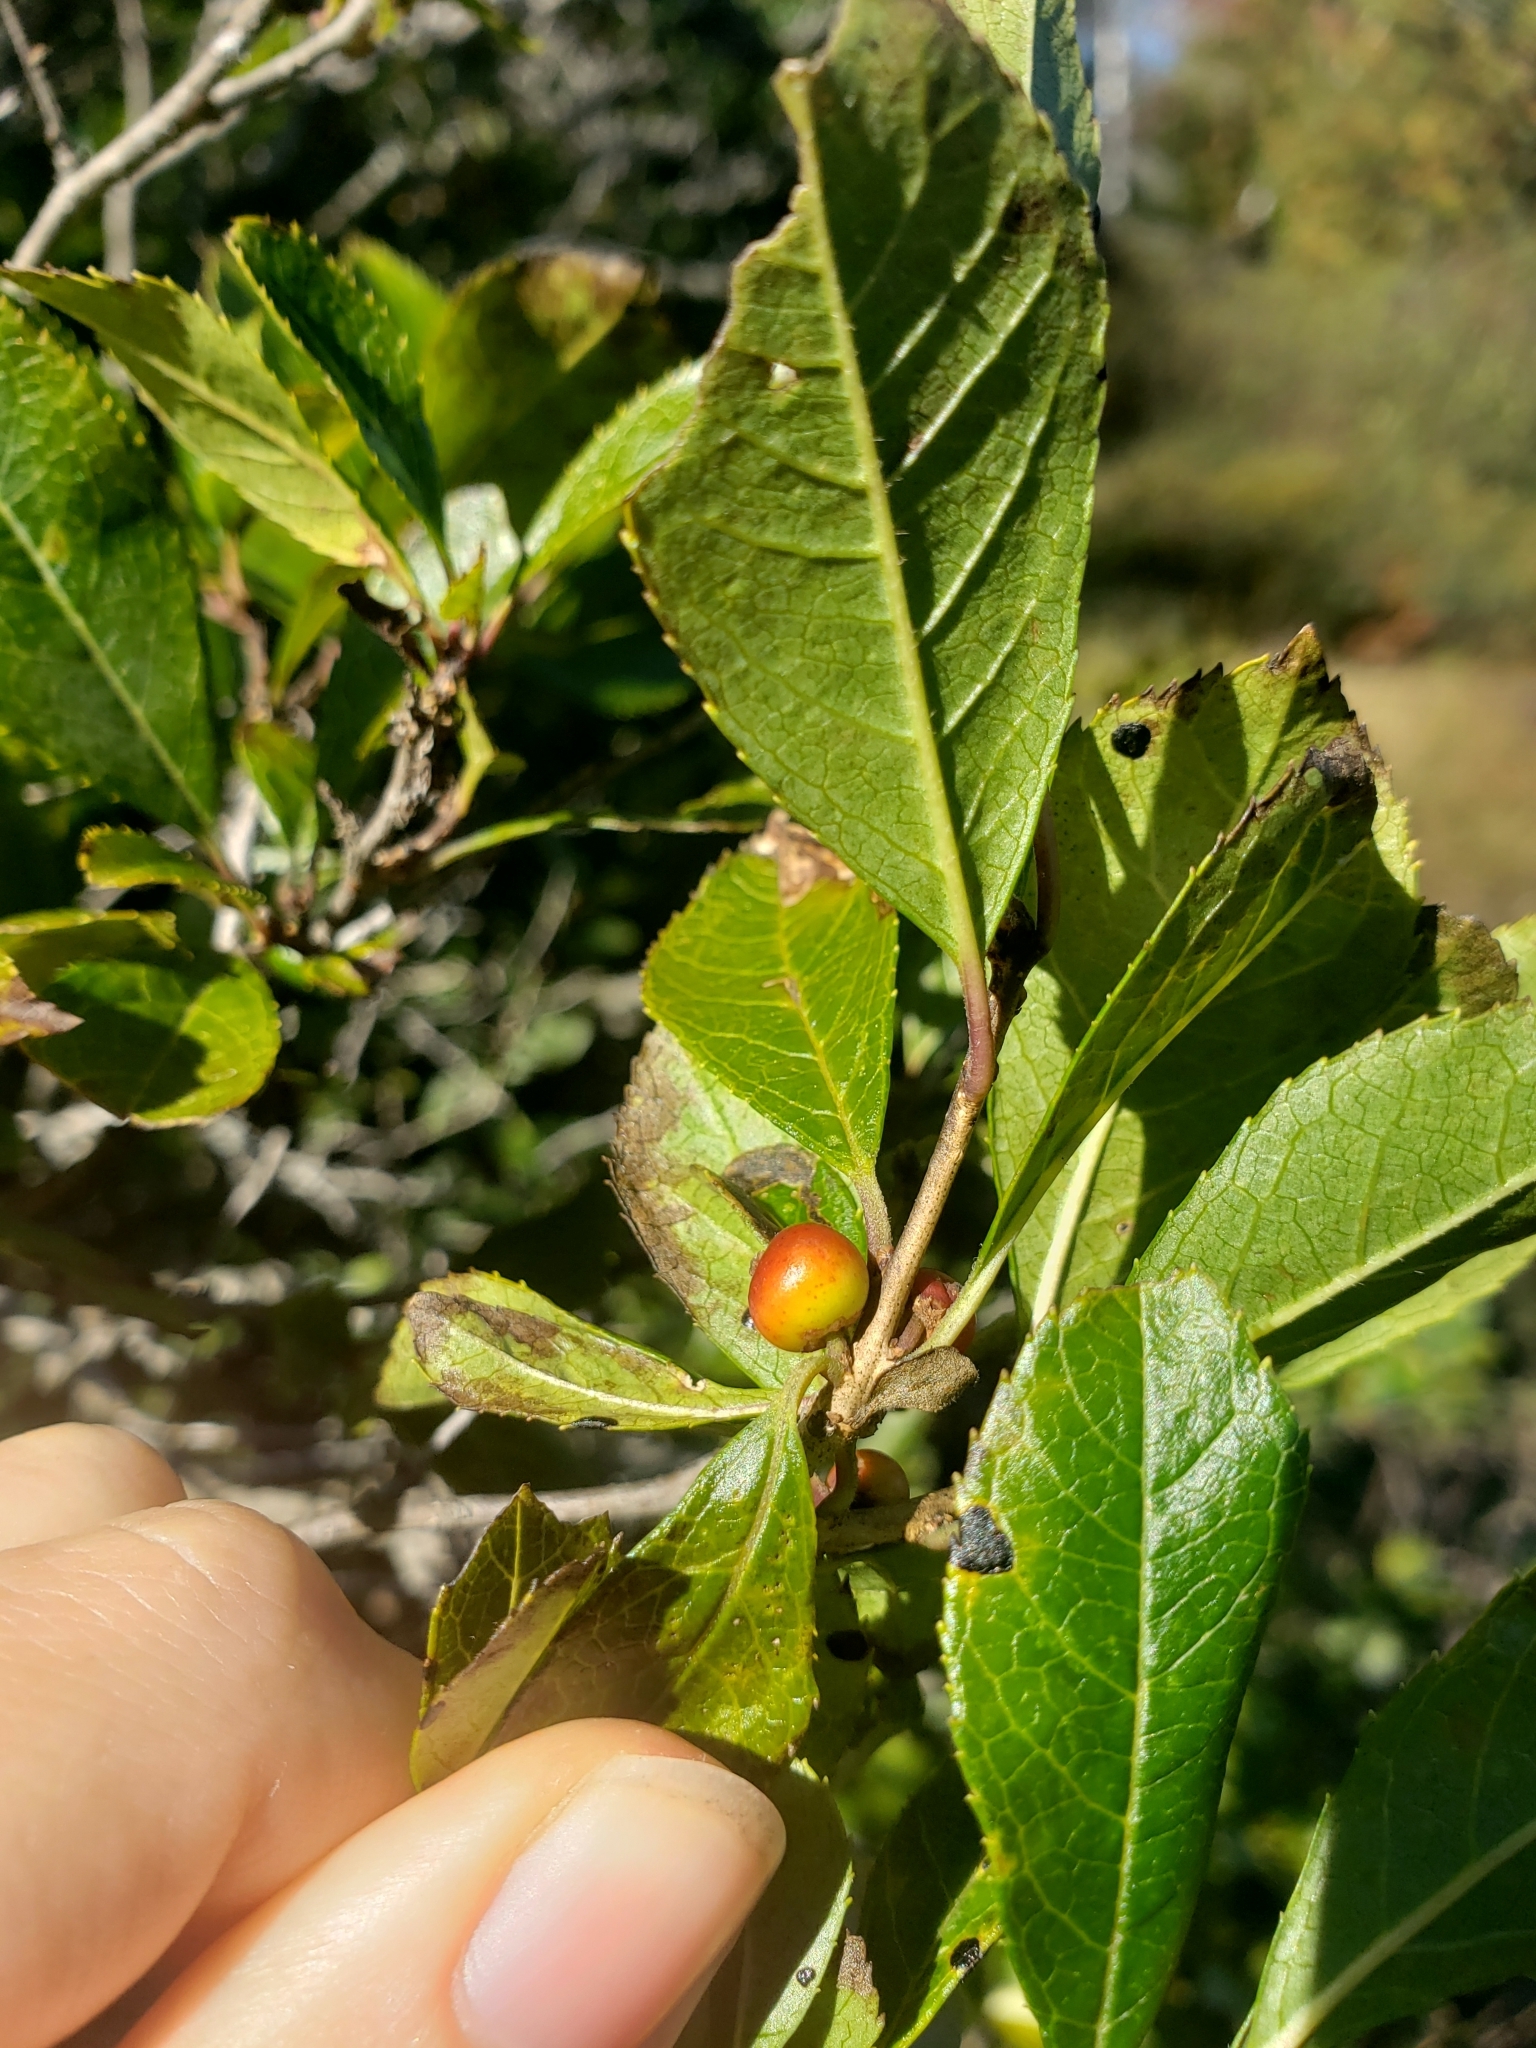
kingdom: Plantae
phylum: Tracheophyta
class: Magnoliopsida
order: Aquifoliales
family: Aquifoliaceae
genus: Ilex
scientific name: Ilex verticillata
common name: Virginia winterberry
